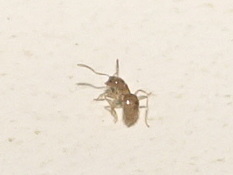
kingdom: Animalia
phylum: Arthropoda
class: Insecta
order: Hymenoptera
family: Formicidae
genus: Brachymyrmex
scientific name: Brachymyrmex depilis
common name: Hairless rover ant
